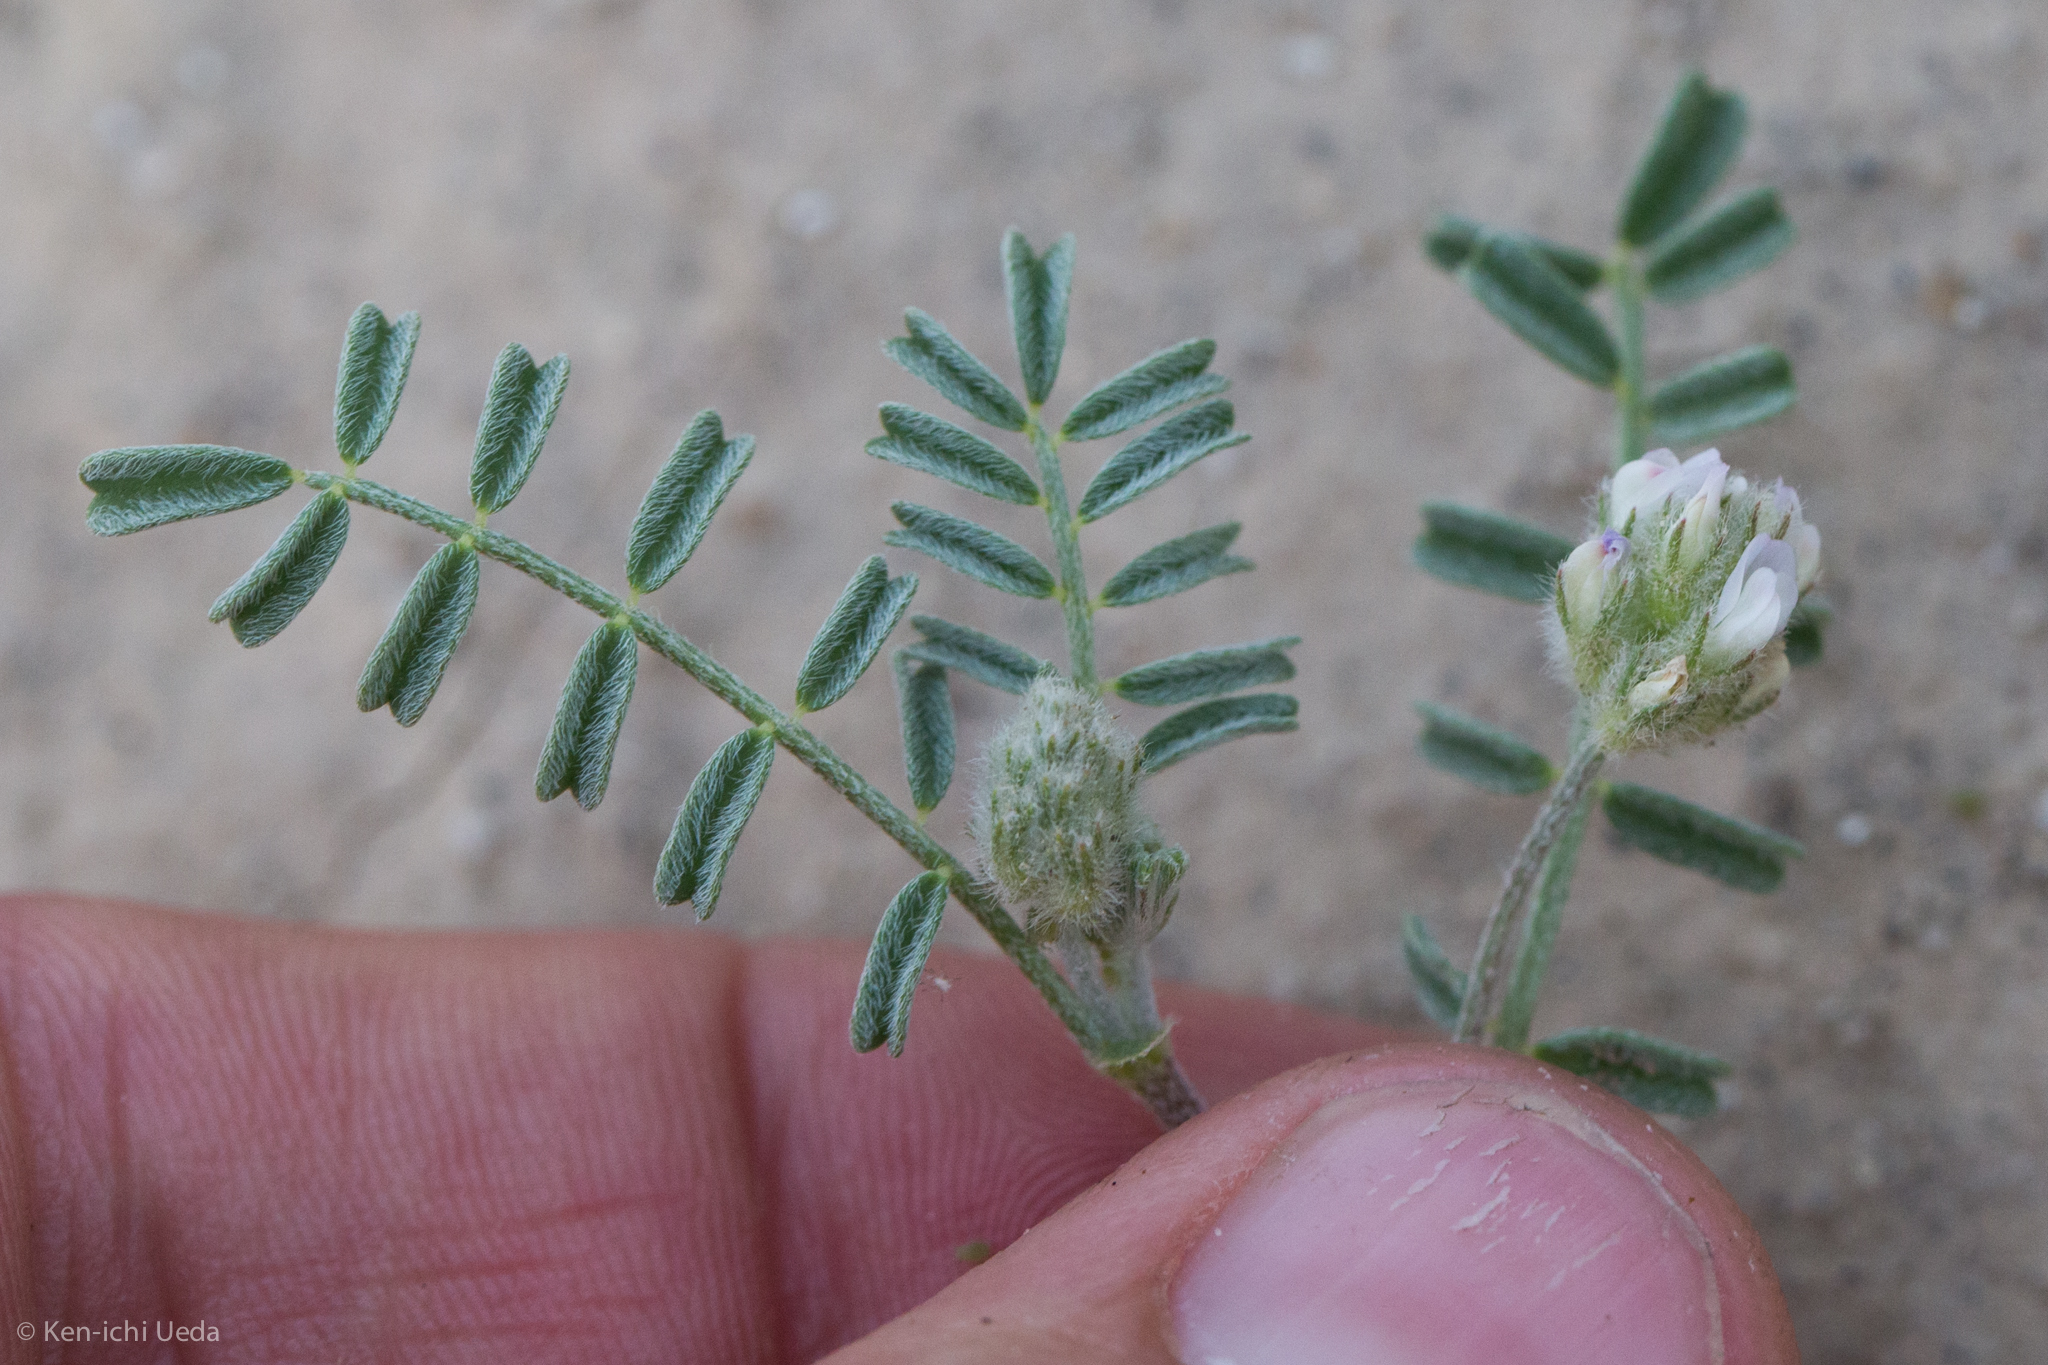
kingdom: Plantae
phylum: Tracheophyta
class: Magnoliopsida
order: Fabales
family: Fabaceae
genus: Astragalus
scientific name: Astragalus didymocarpus
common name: Dwarf white milkvetch
